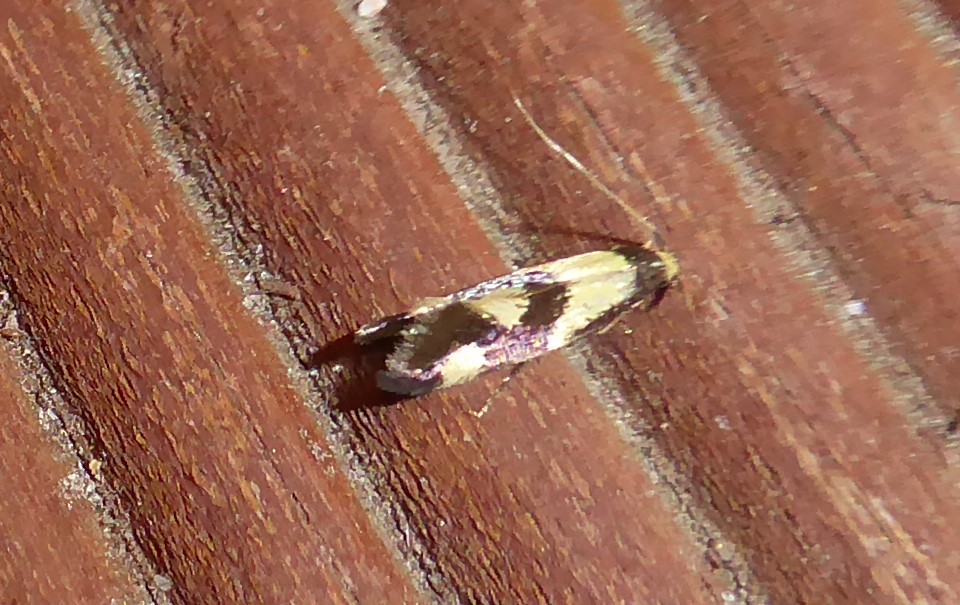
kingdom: Animalia
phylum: Arthropoda
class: Insecta
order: Lepidoptera
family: Tineidae
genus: Opogona
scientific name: Opogona comptella
